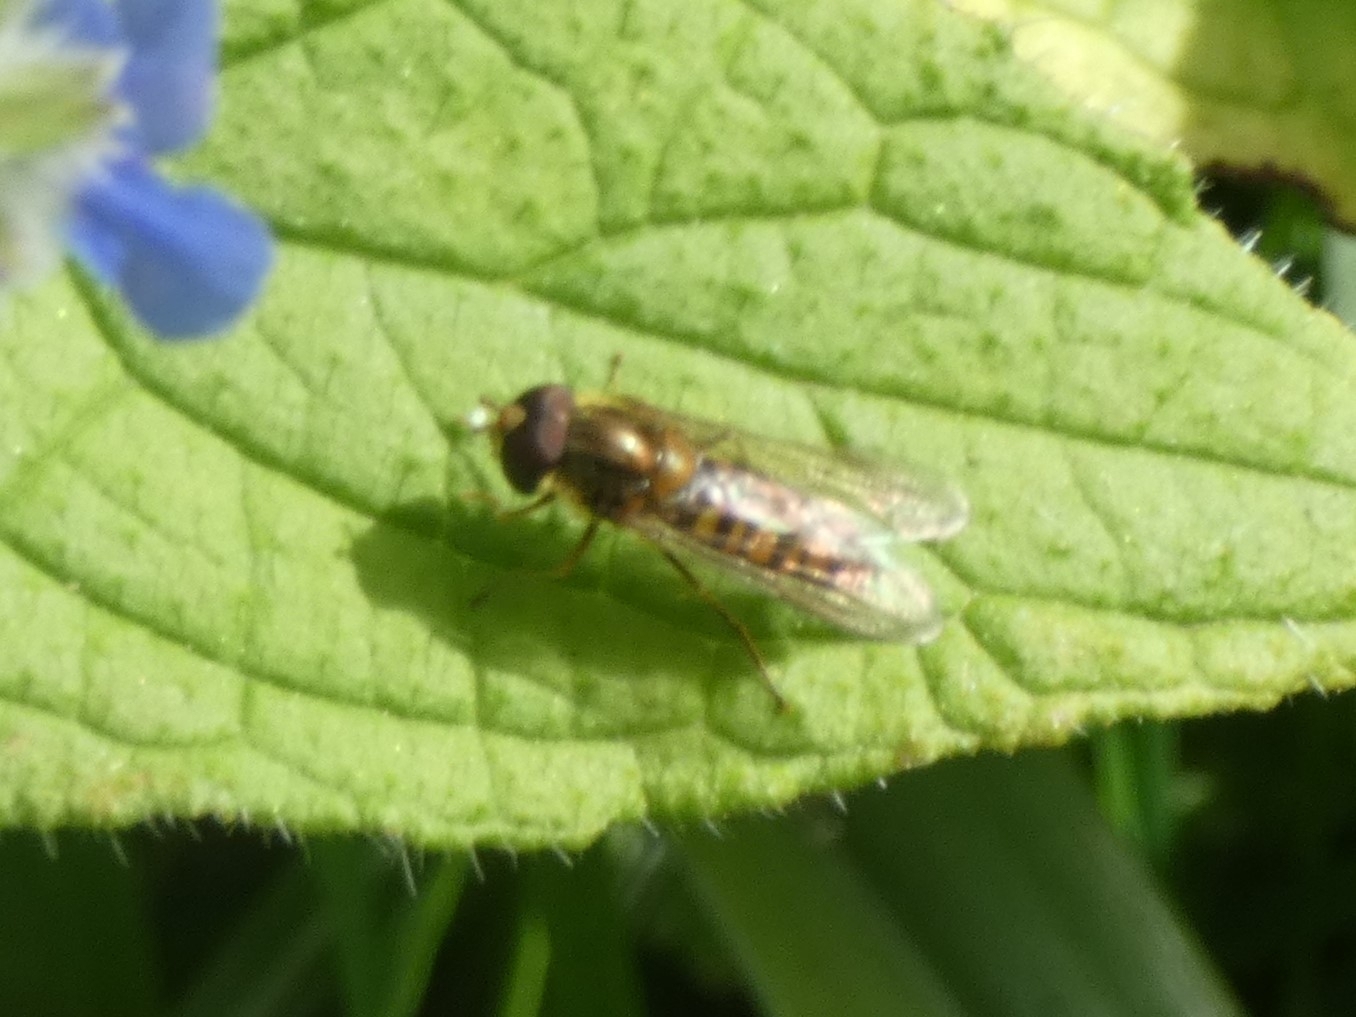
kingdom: Animalia
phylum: Arthropoda
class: Insecta
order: Diptera
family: Syrphidae
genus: Episyrphus
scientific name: Episyrphus balteatus
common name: Marmalade hoverfly
